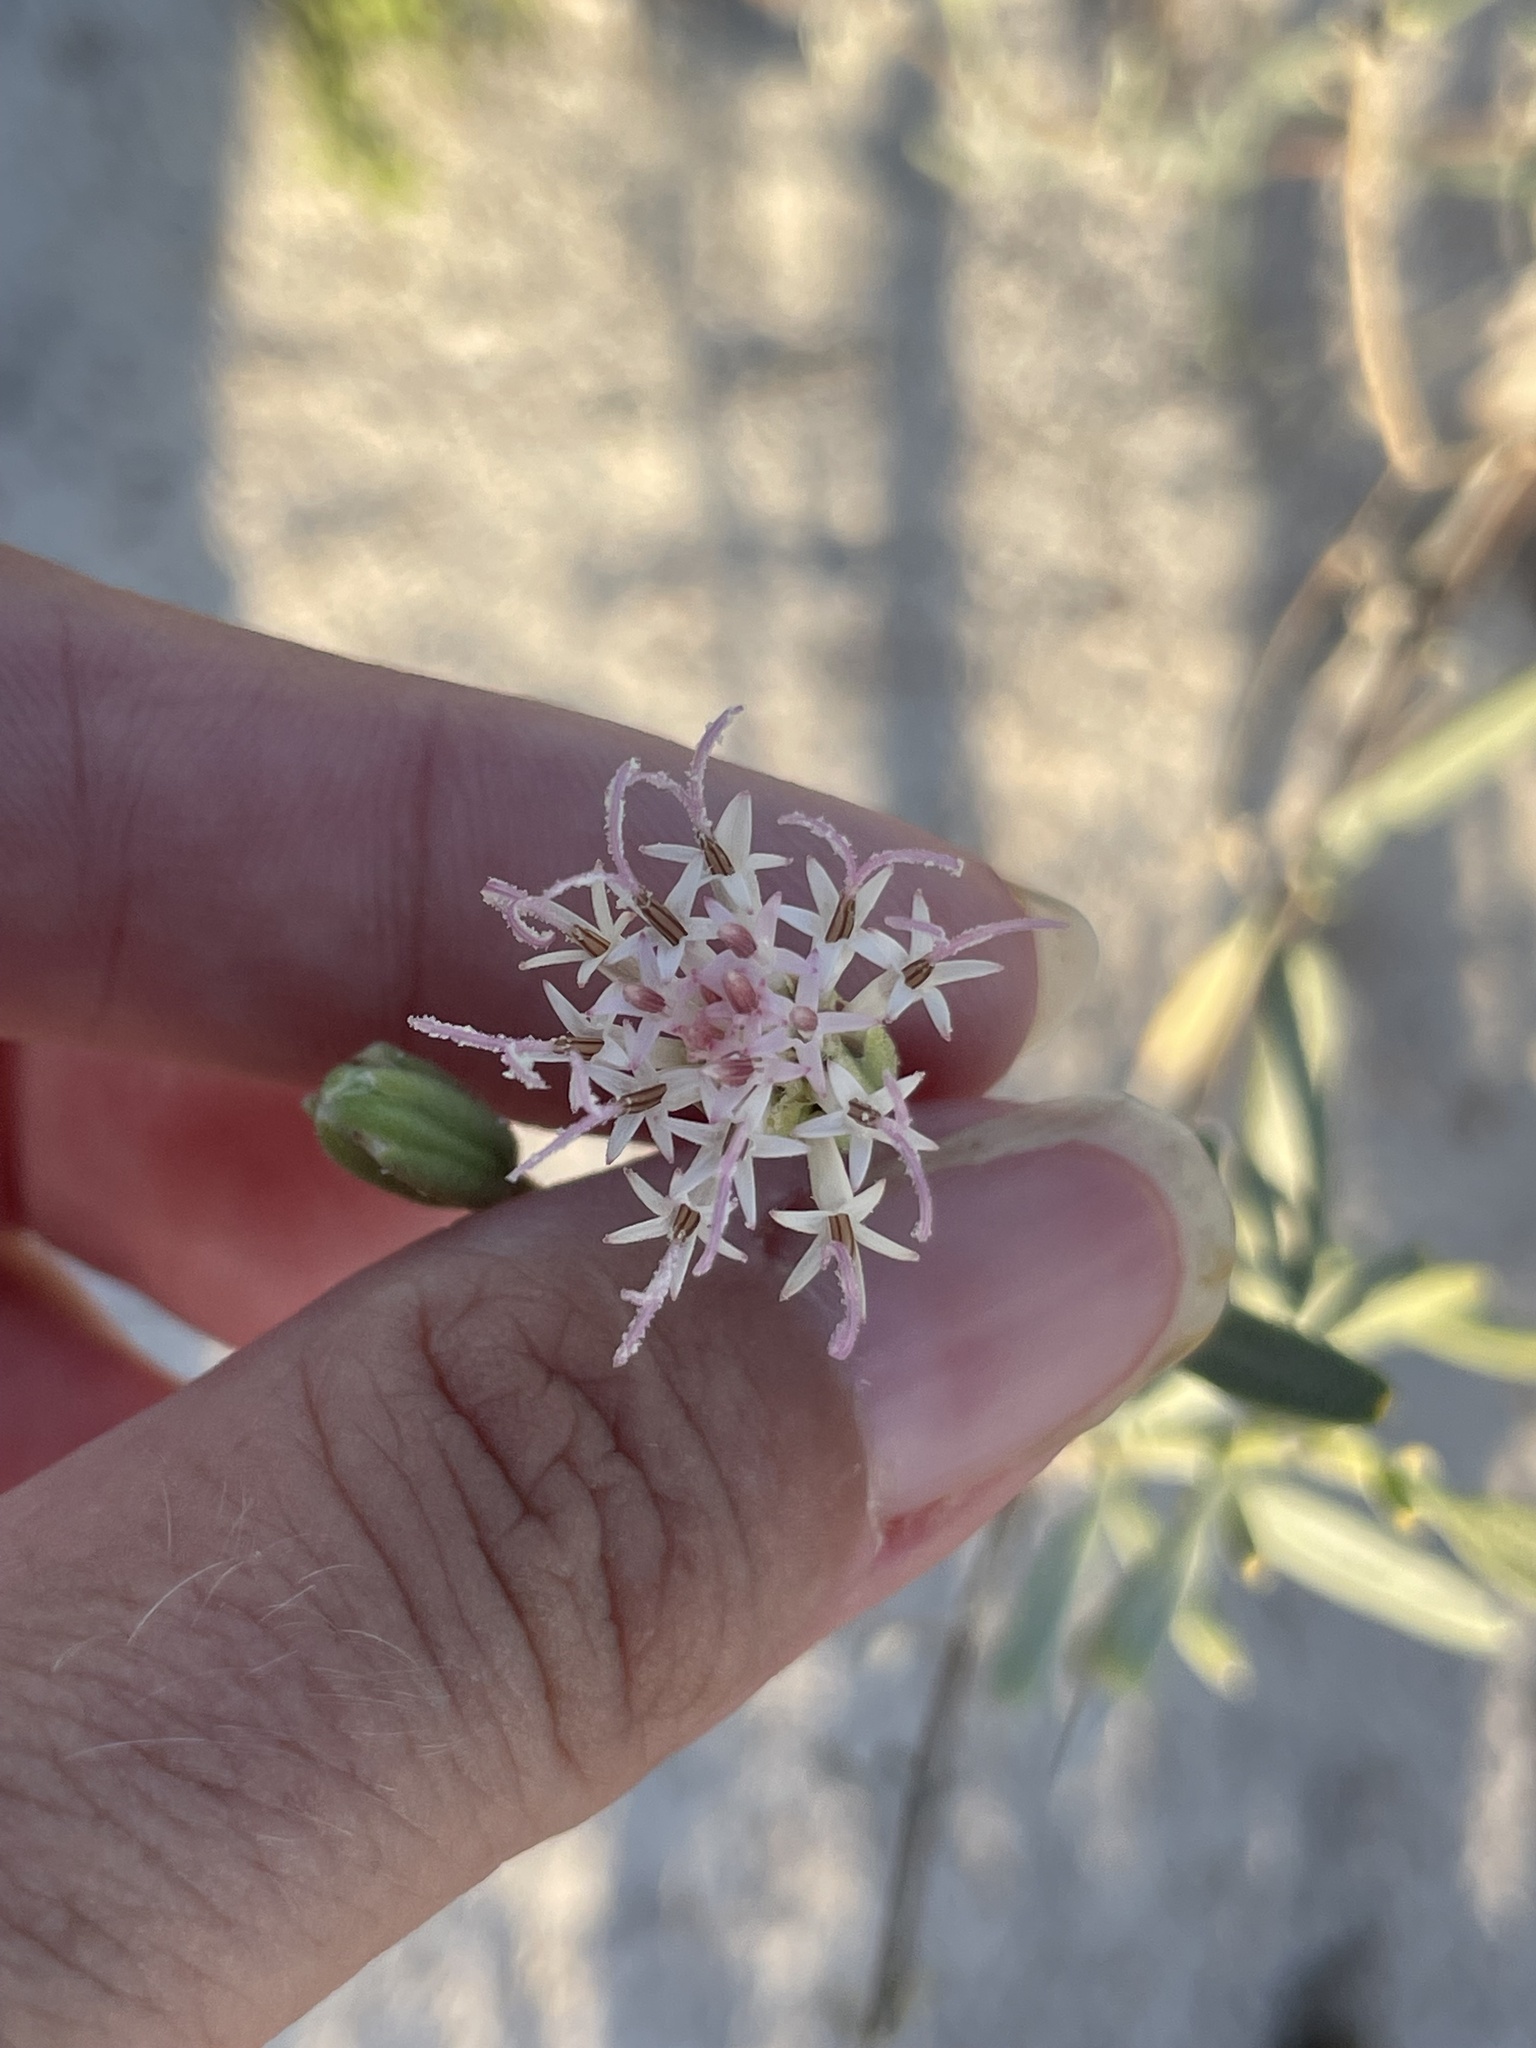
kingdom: Plantae
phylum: Tracheophyta
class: Magnoliopsida
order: Asterales
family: Asteraceae
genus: Palafoxia
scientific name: Palafoxia linearis
